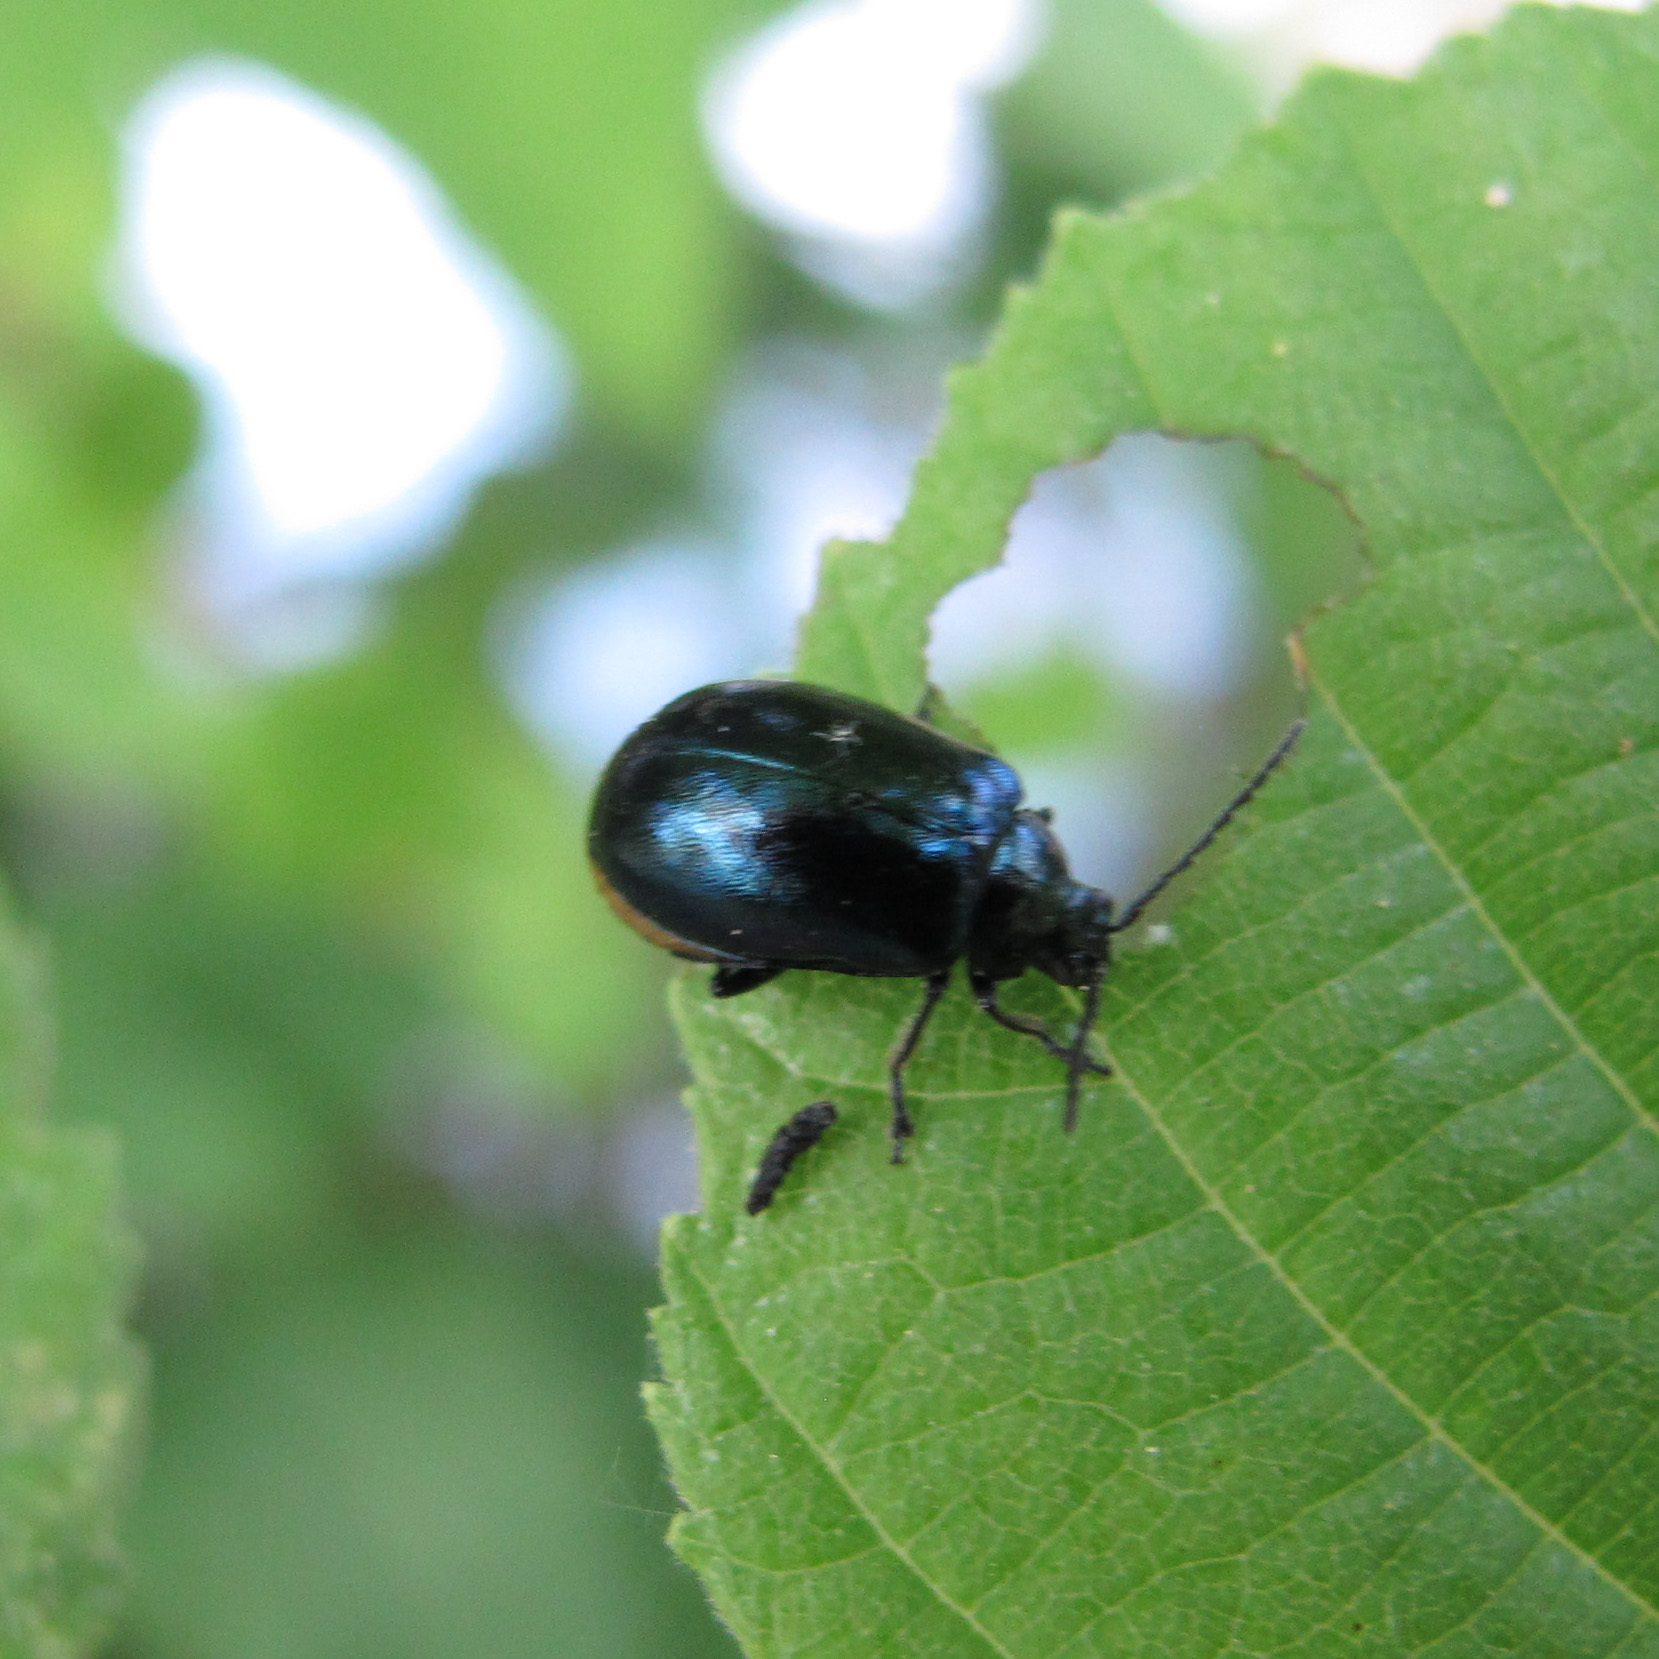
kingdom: Animalia
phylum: Arthropoda
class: Insecta
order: Coleoptera
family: Chrysomelidae
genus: Agelastica
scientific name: Agelastica alni
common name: Alder leaf beetle
